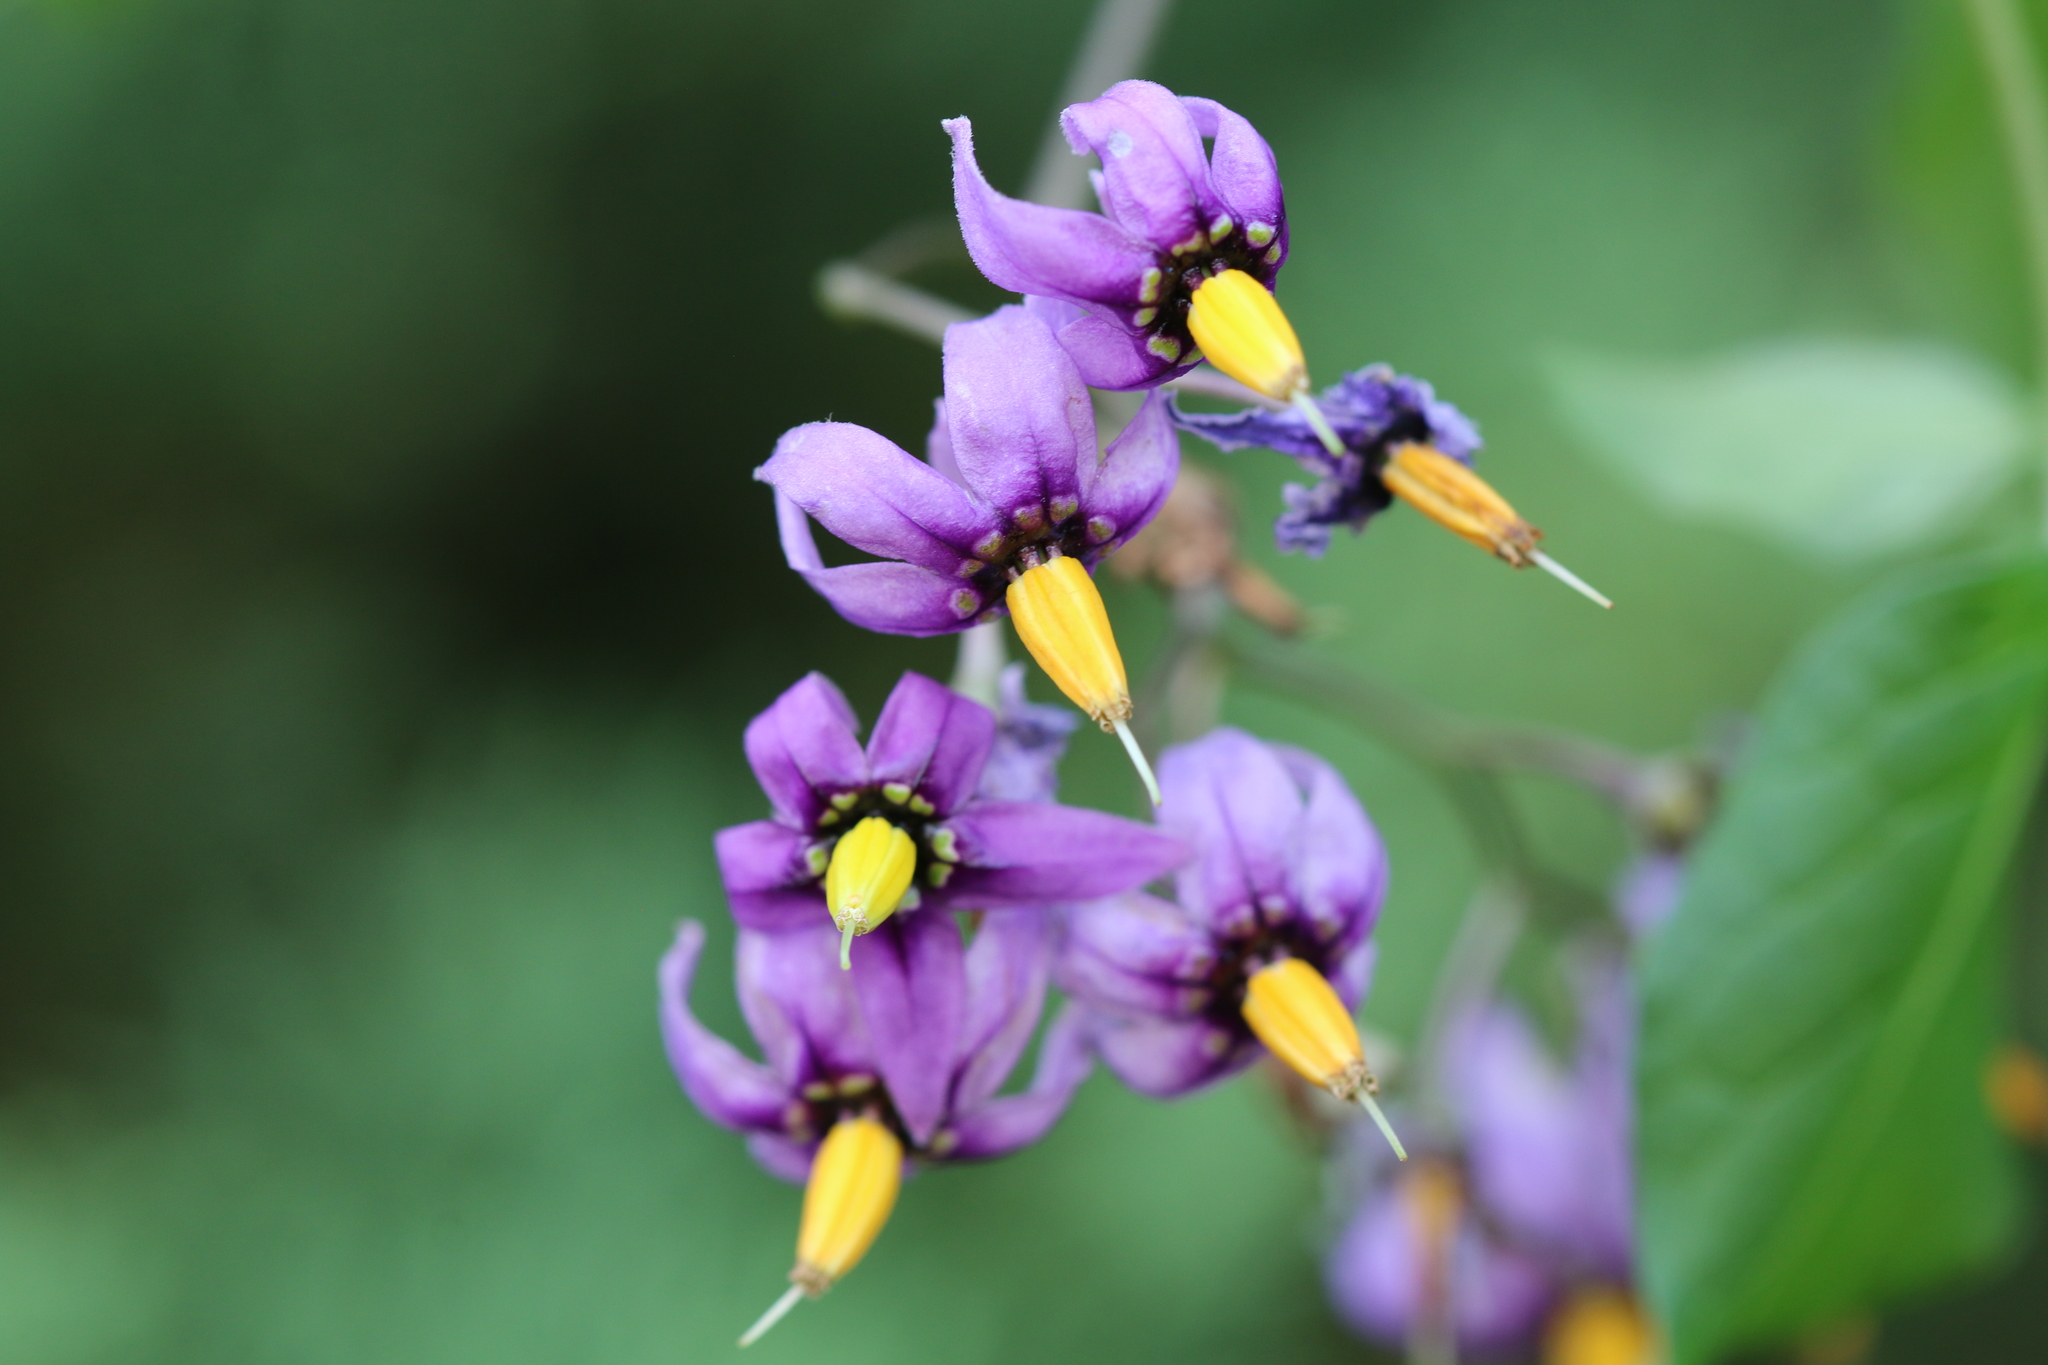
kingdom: Plantae
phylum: Tracheophyta
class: Magnoliopsida
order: Solanales
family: Solanaceae
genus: Solanum
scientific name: Solanum dulcamara
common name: Climbing nightshade
